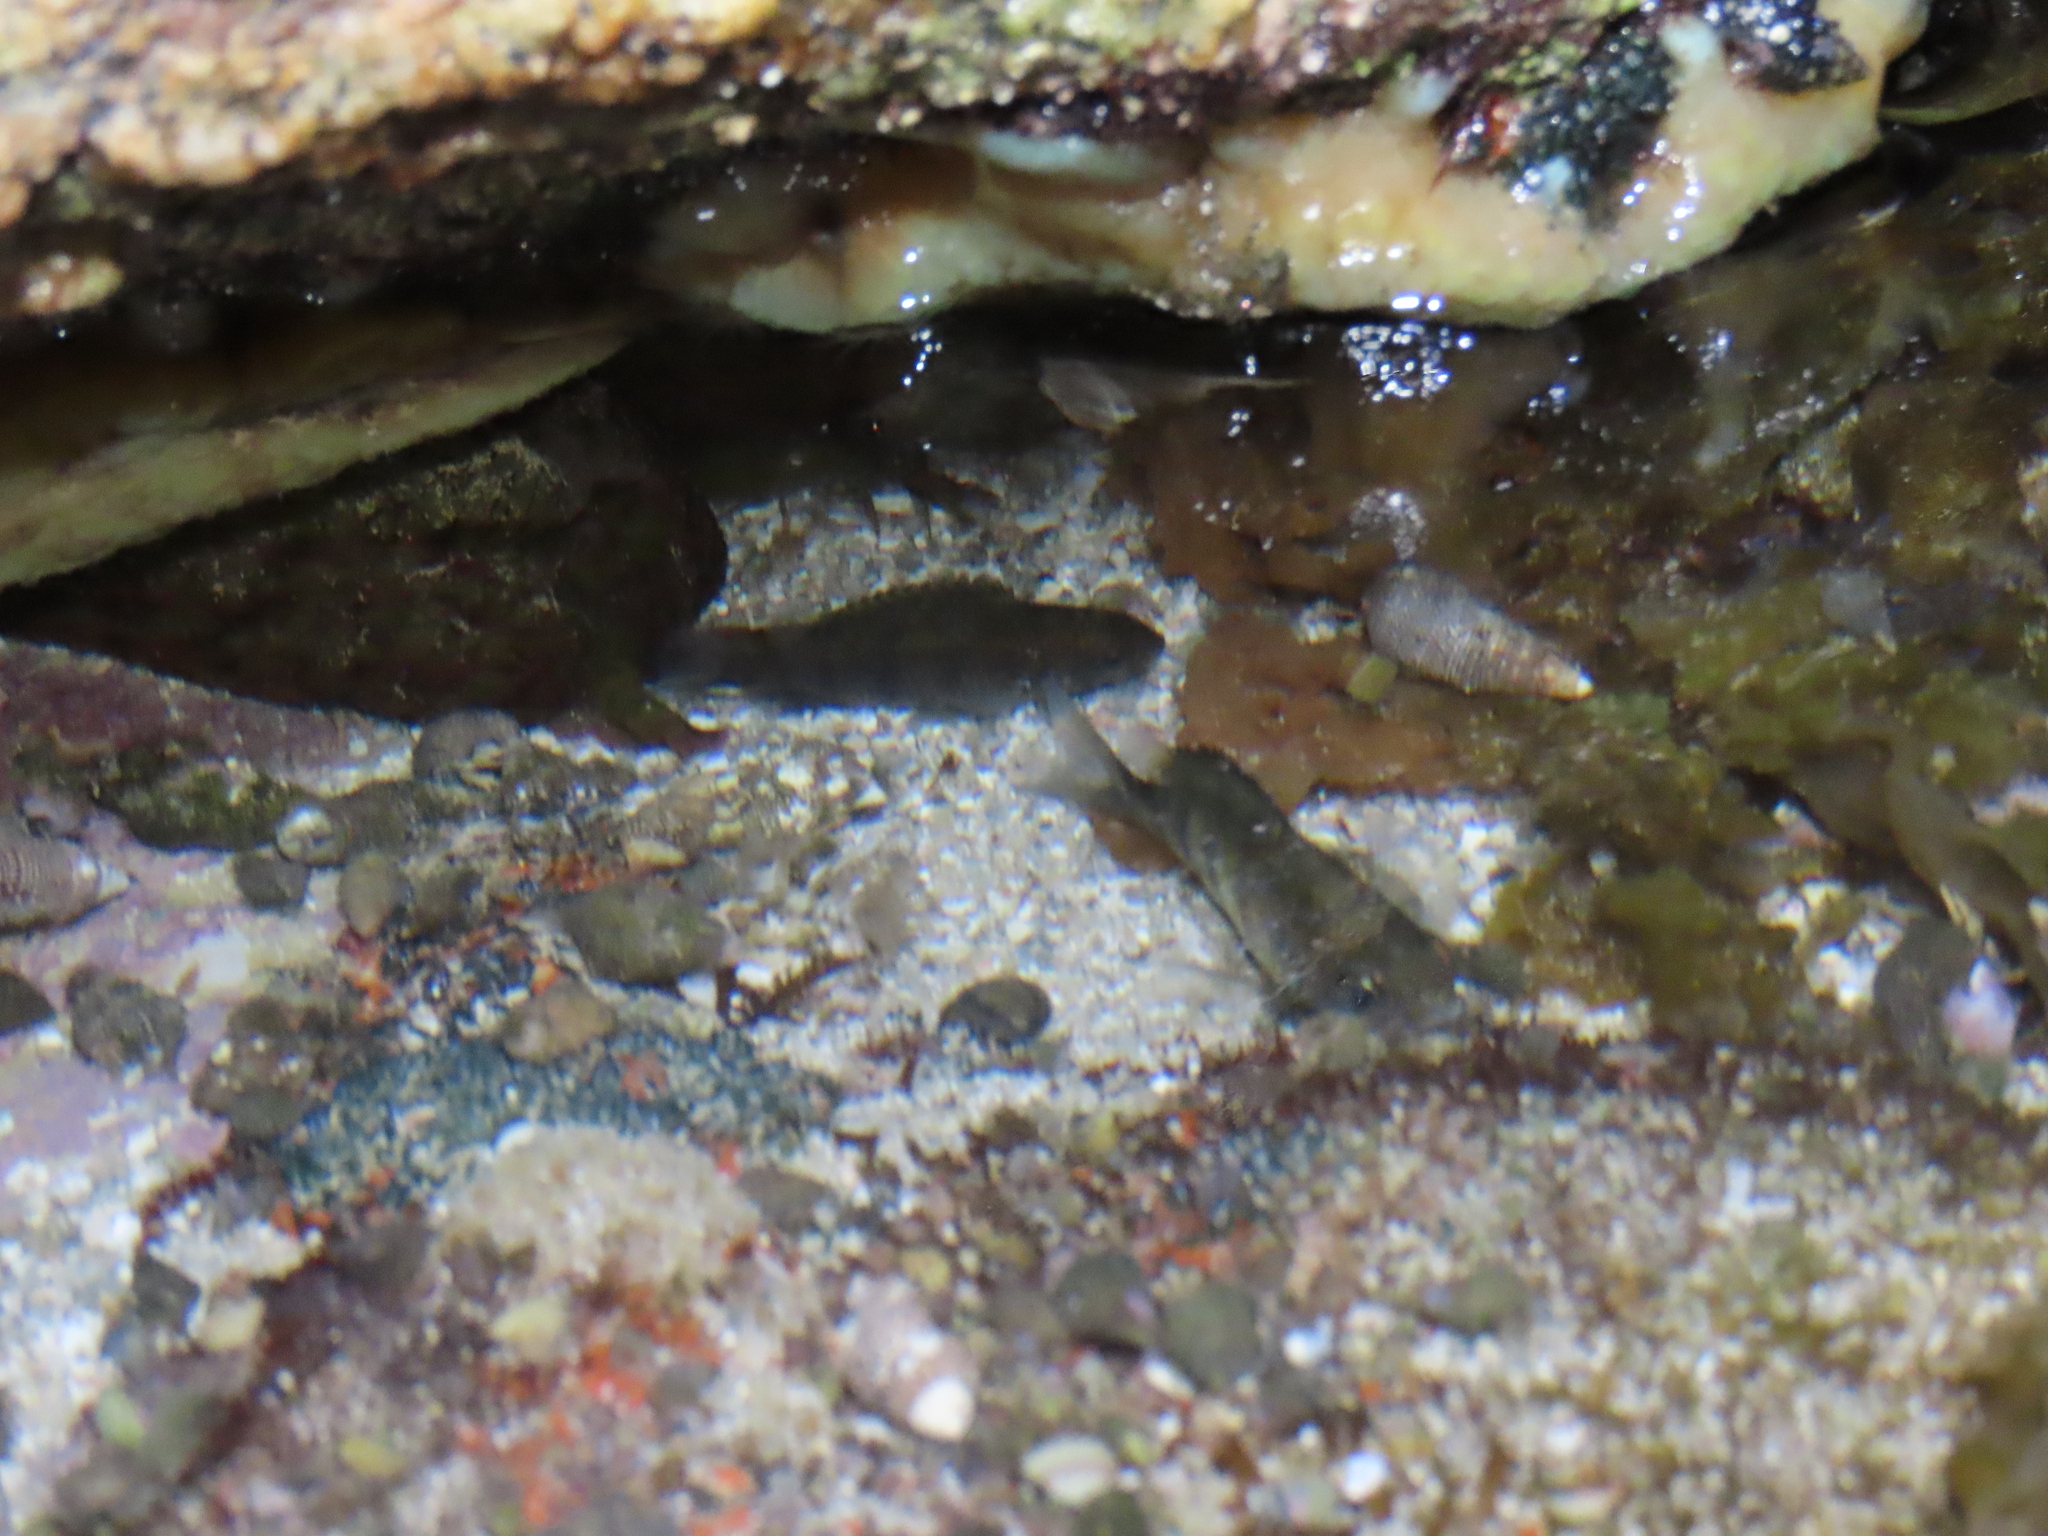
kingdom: Animalia
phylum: Chordata
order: Perciformes
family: Pomacentridae
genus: Abudefduf
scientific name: Abudefduf troschelii
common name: Panamic sergeant major
